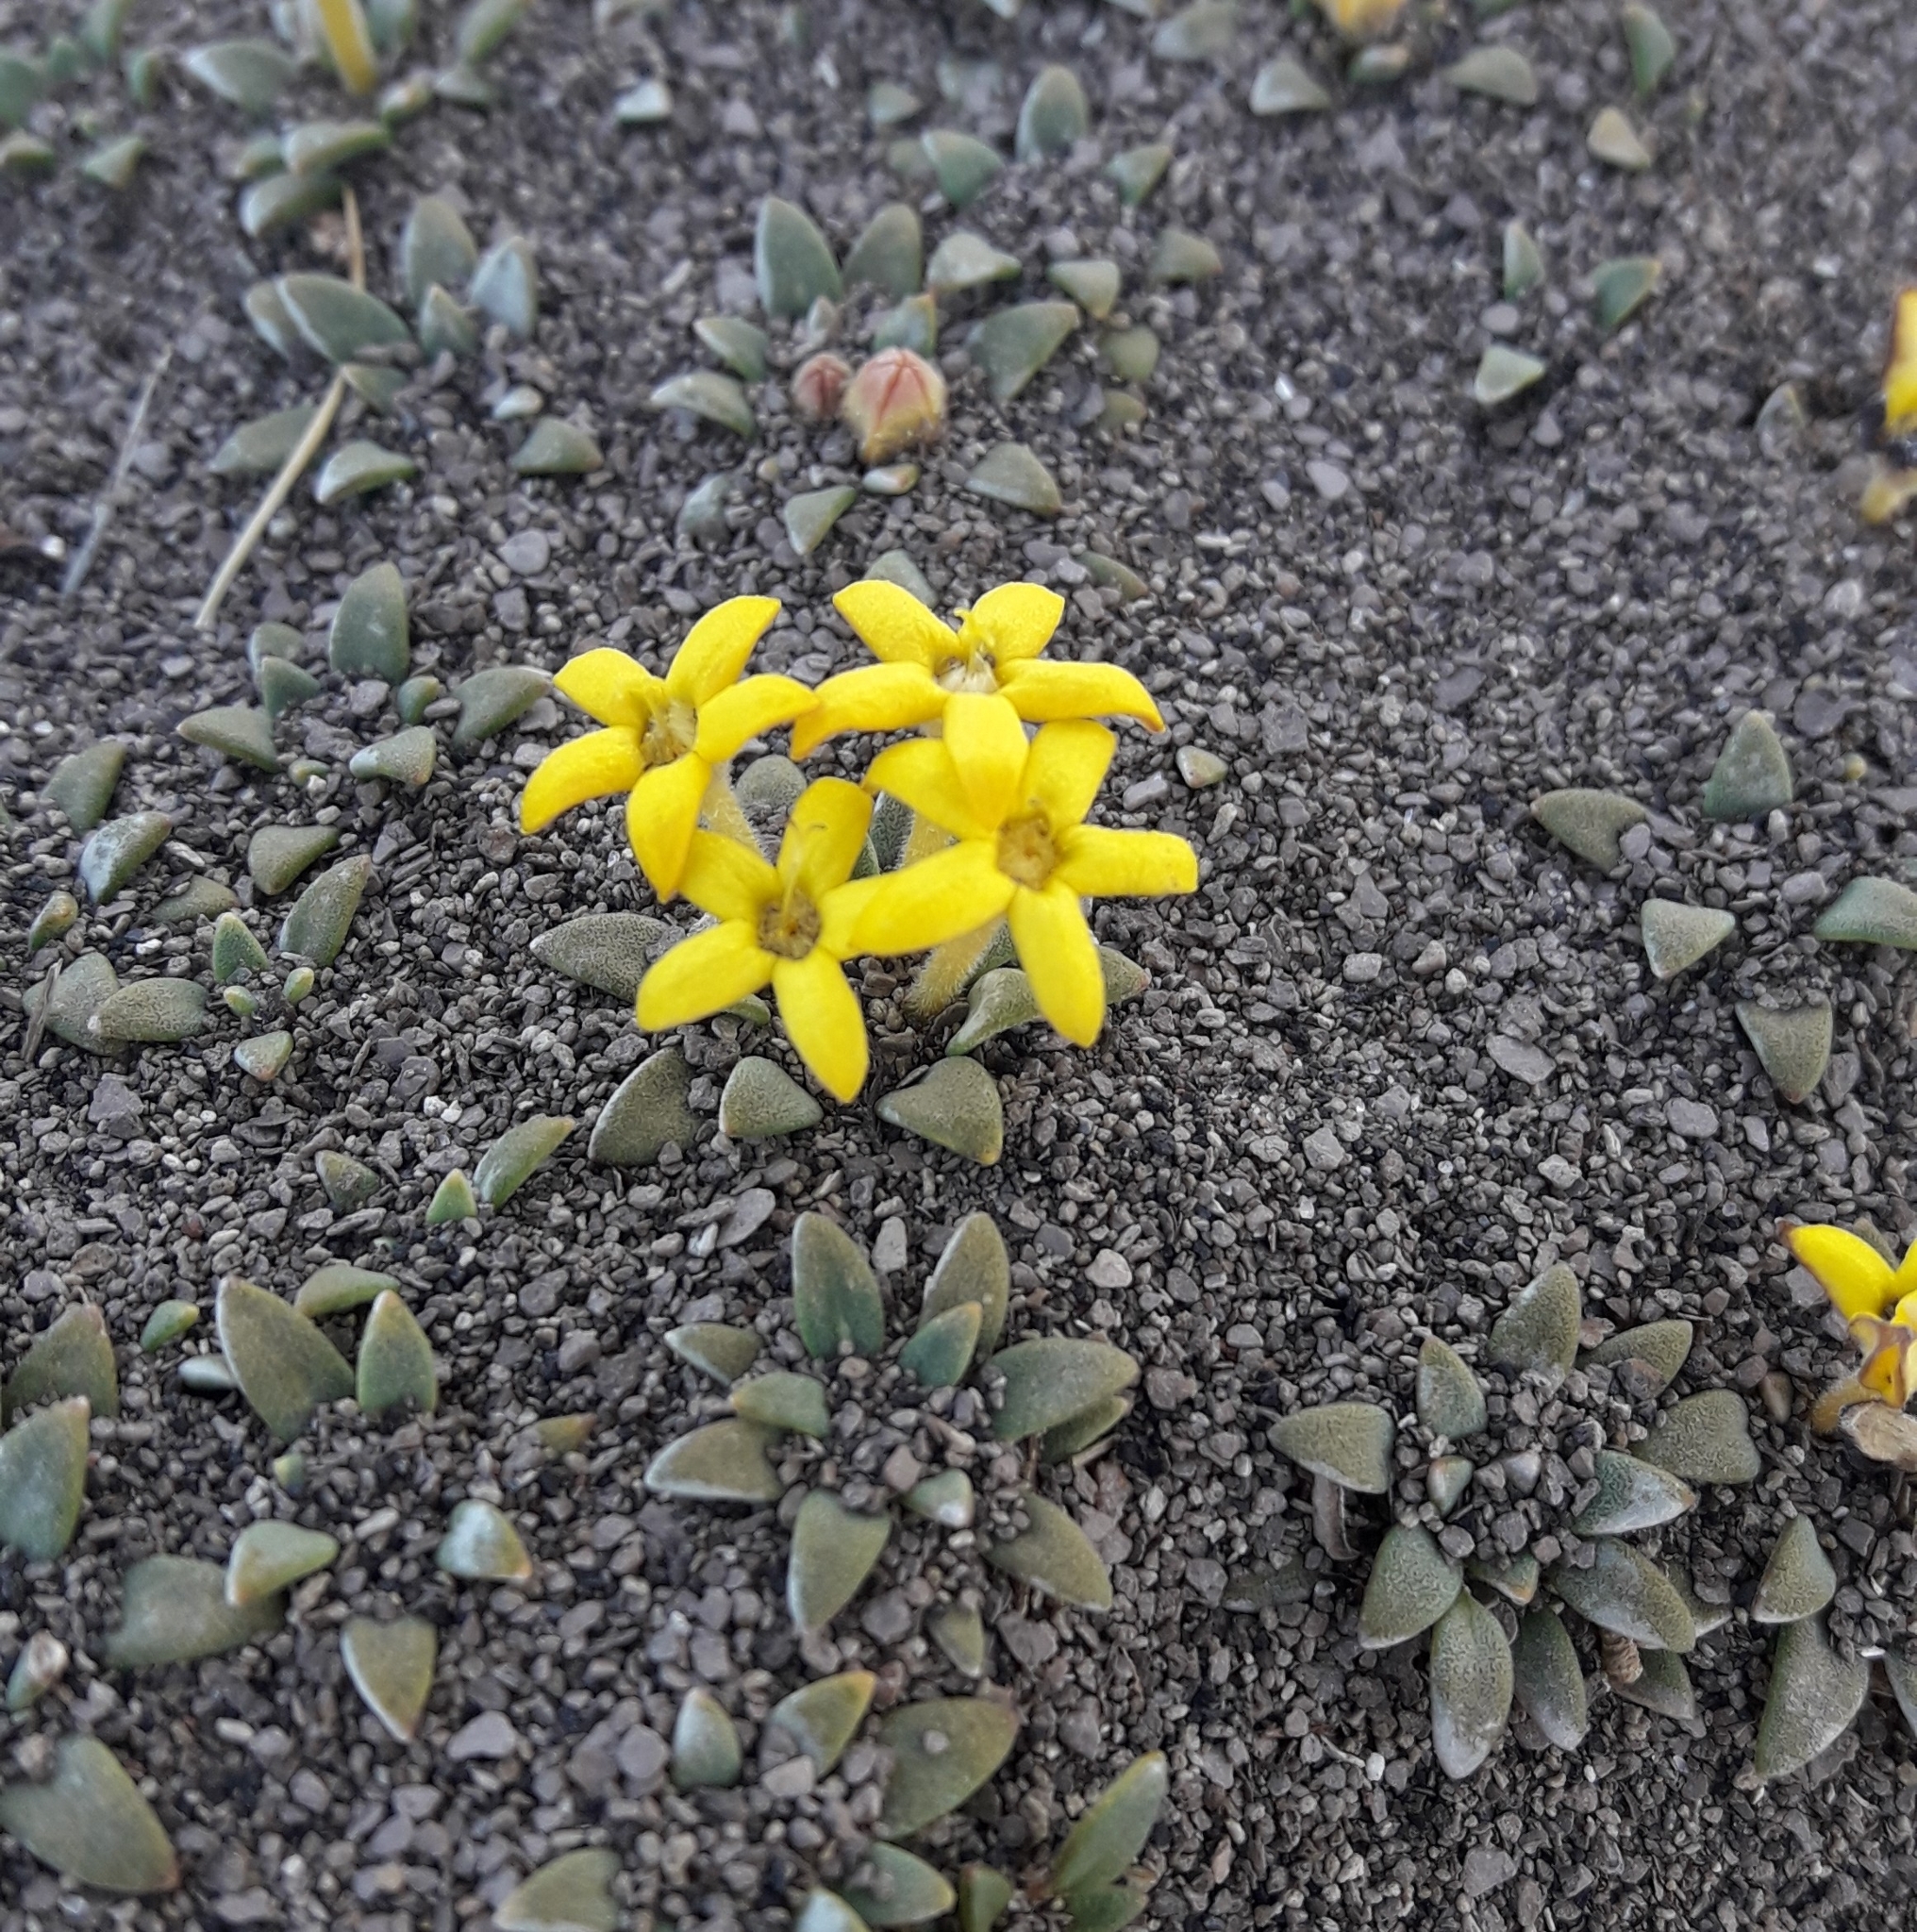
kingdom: Plantae
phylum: Tracheophyta
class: Magnoliopsida
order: Gentianales
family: Rubiaceae
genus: Oreopolus
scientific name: Oreopolus glacialis
